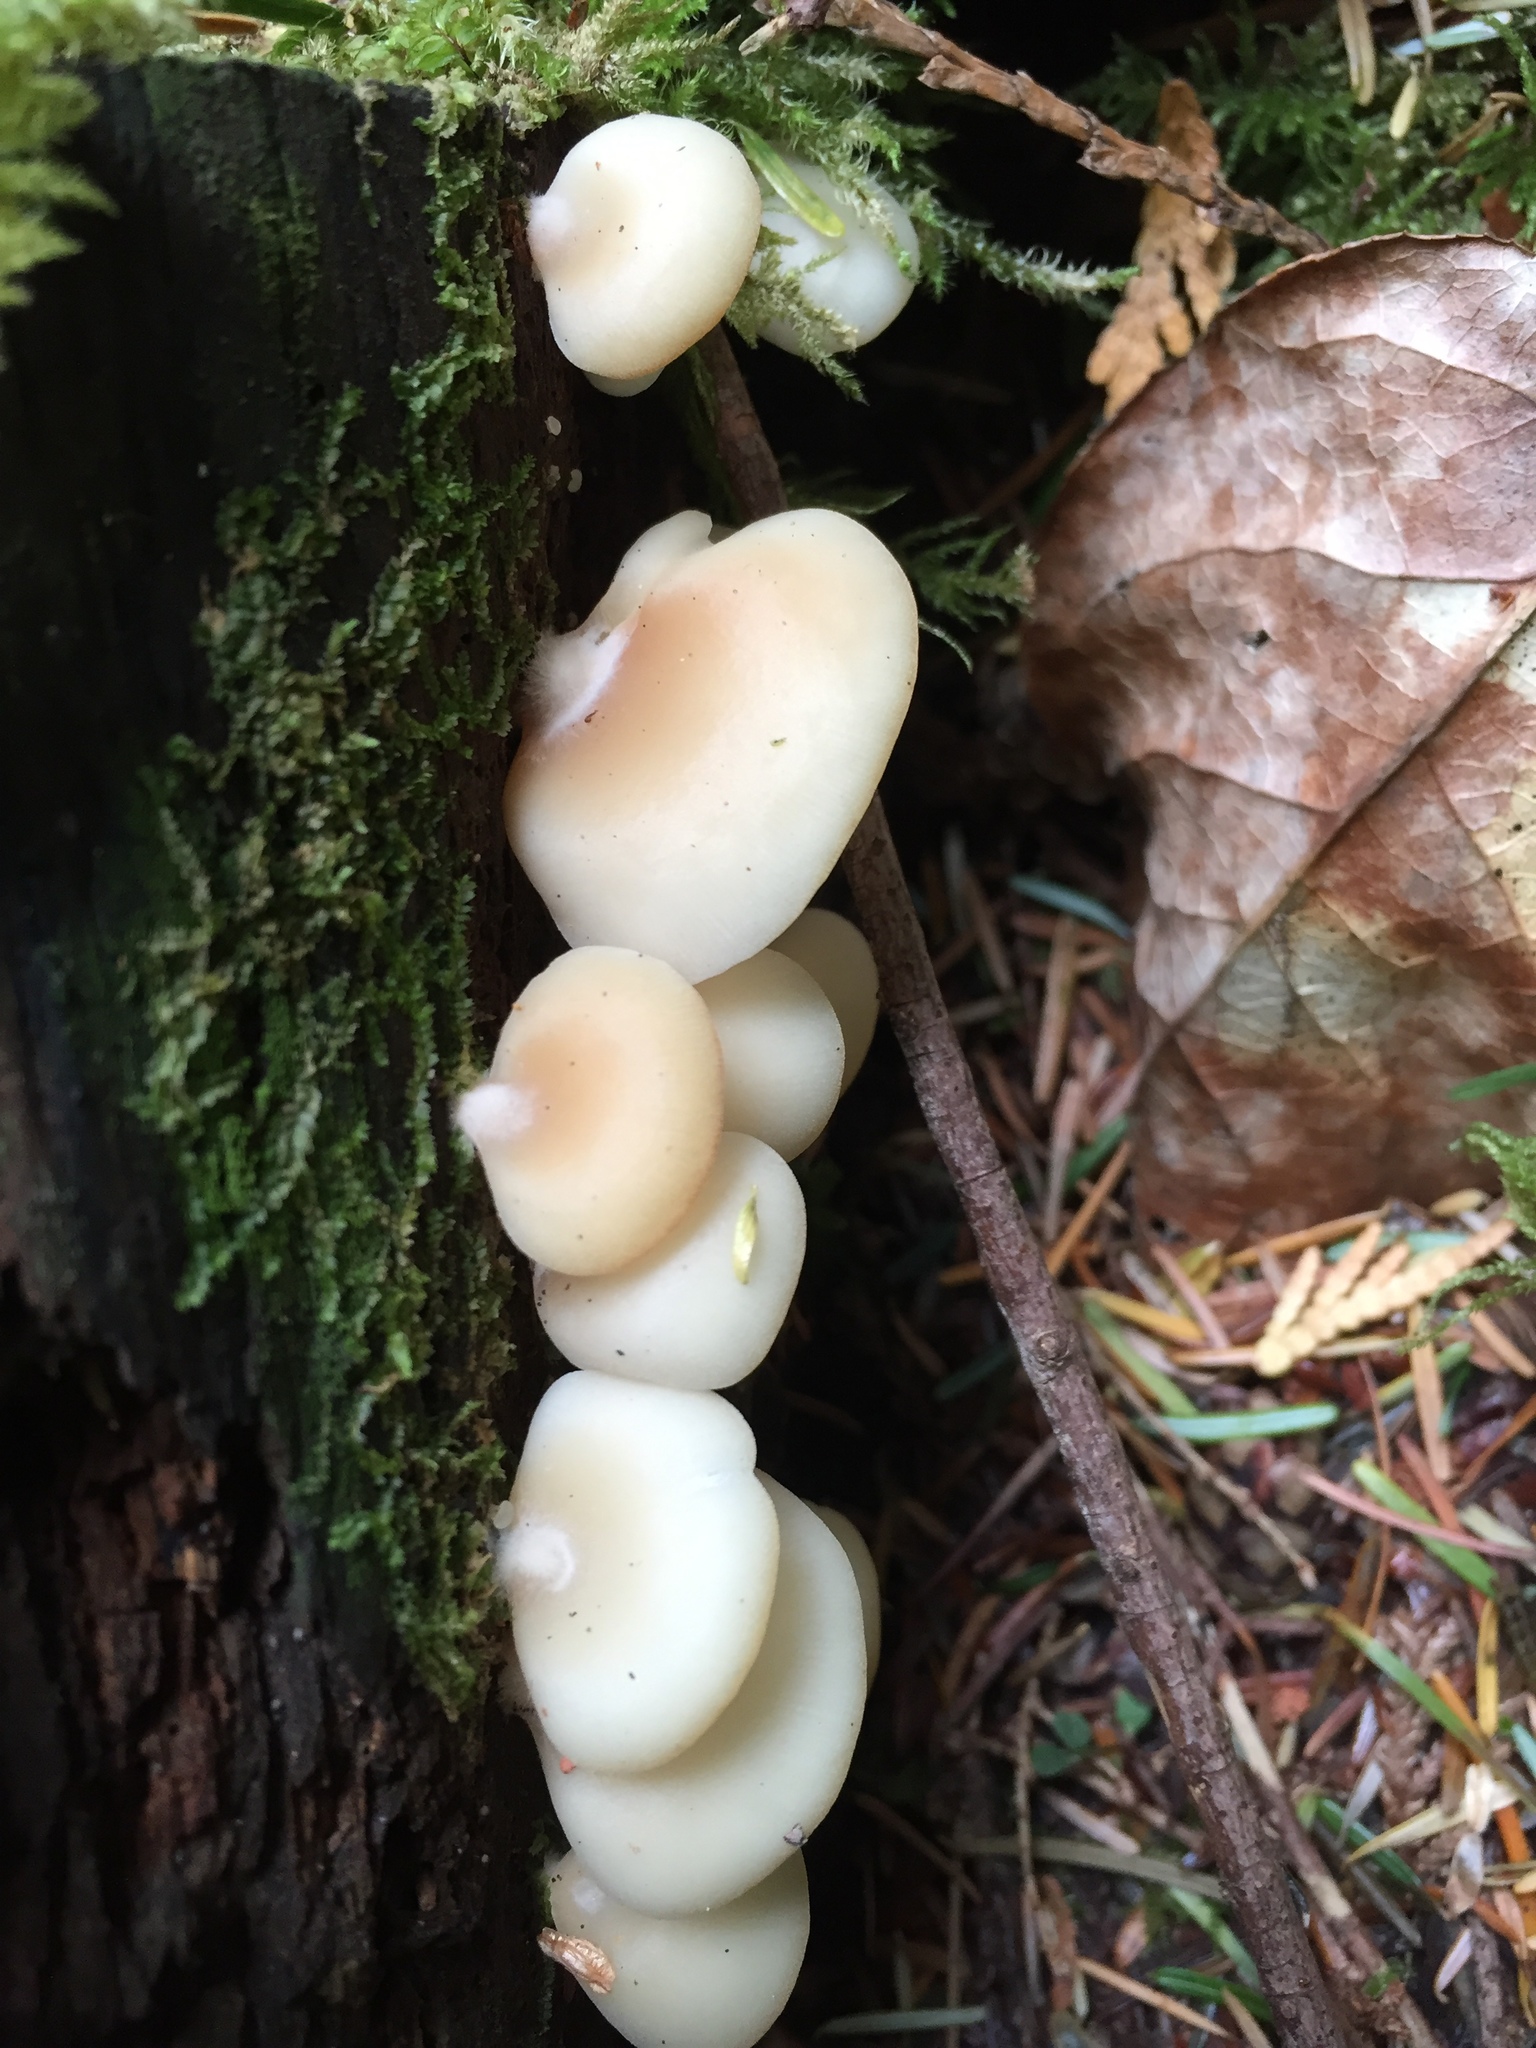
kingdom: Fungi
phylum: Basidiomycota
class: Agaricomycetes
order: Agaricales
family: Pleurotaceae
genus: Pleurotus
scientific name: Pleurotus ostreatus
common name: Oyster mushroom
